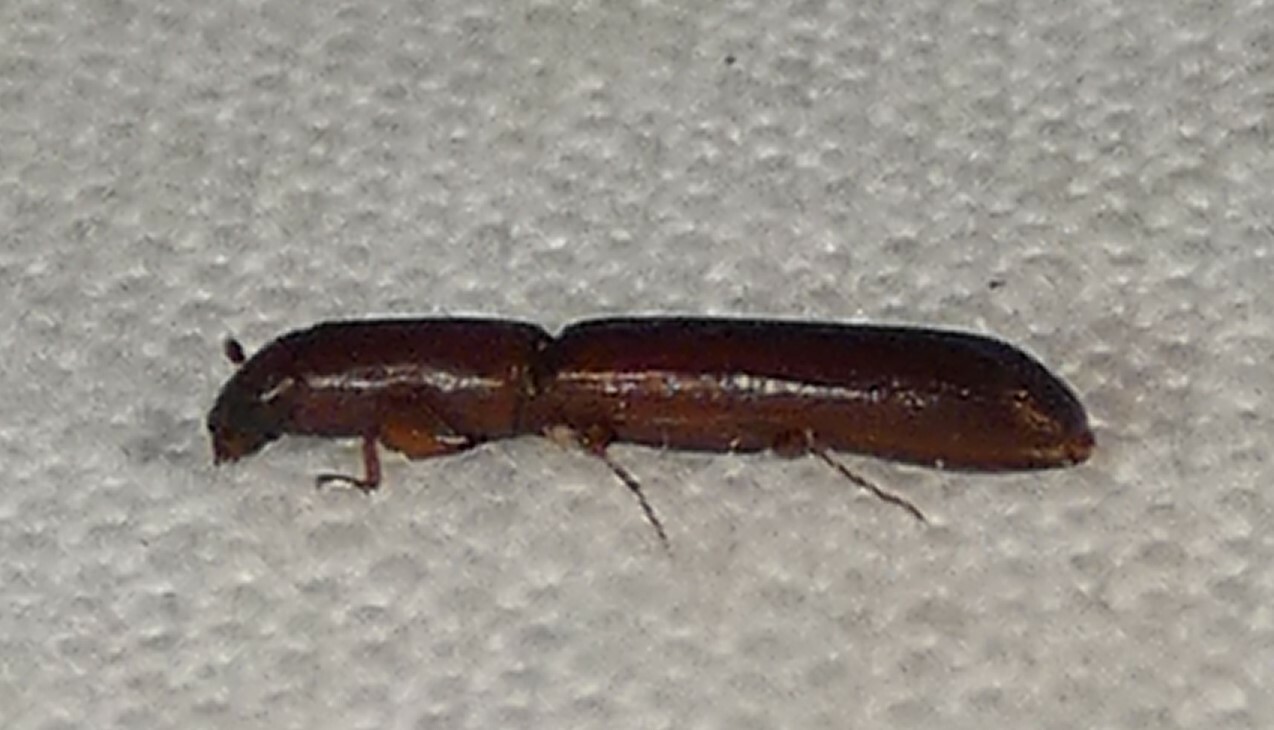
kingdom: Animalia
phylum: Arthropoda
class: Insecta
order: Coleoptera
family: Zopheridae
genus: Nematidium
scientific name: Nematidium filiforme
